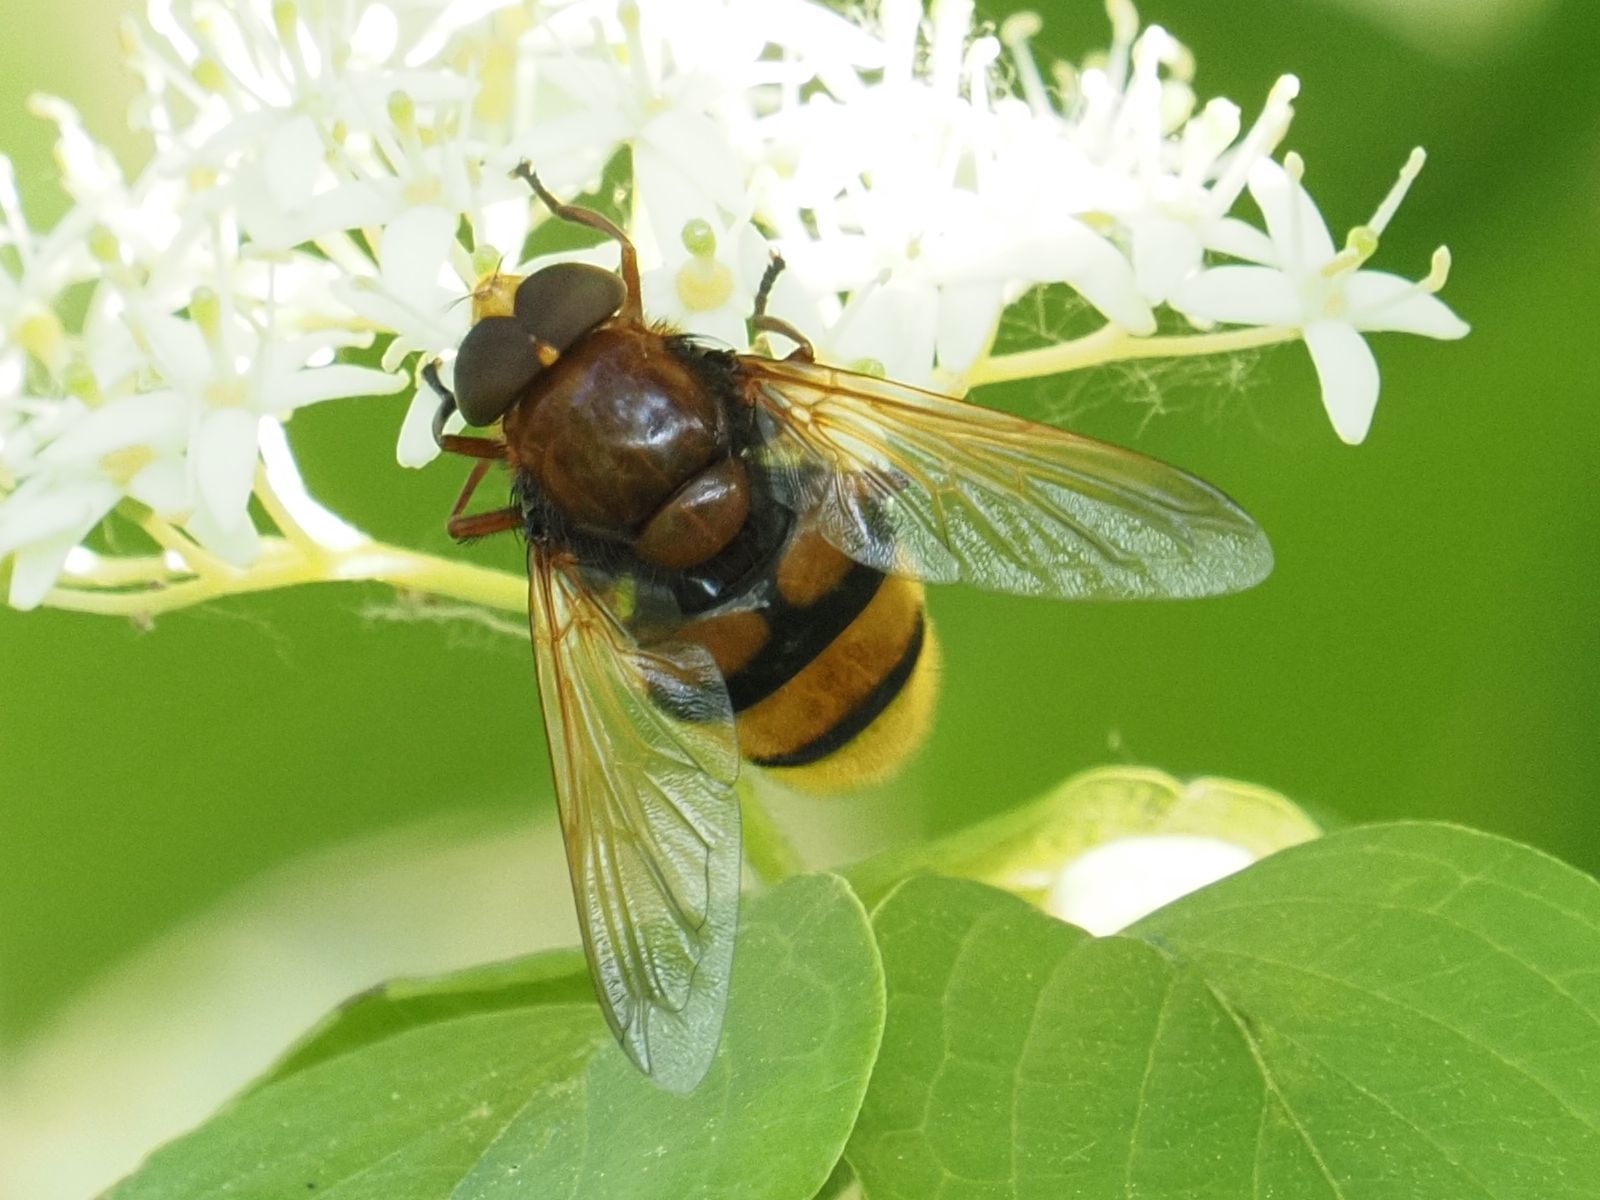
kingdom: Animalia
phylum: Arthropoda
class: Insecta
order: Diptera
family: Syrphidae
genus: Volucella
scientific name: Volucella zonaria
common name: Hornet hoverfly
